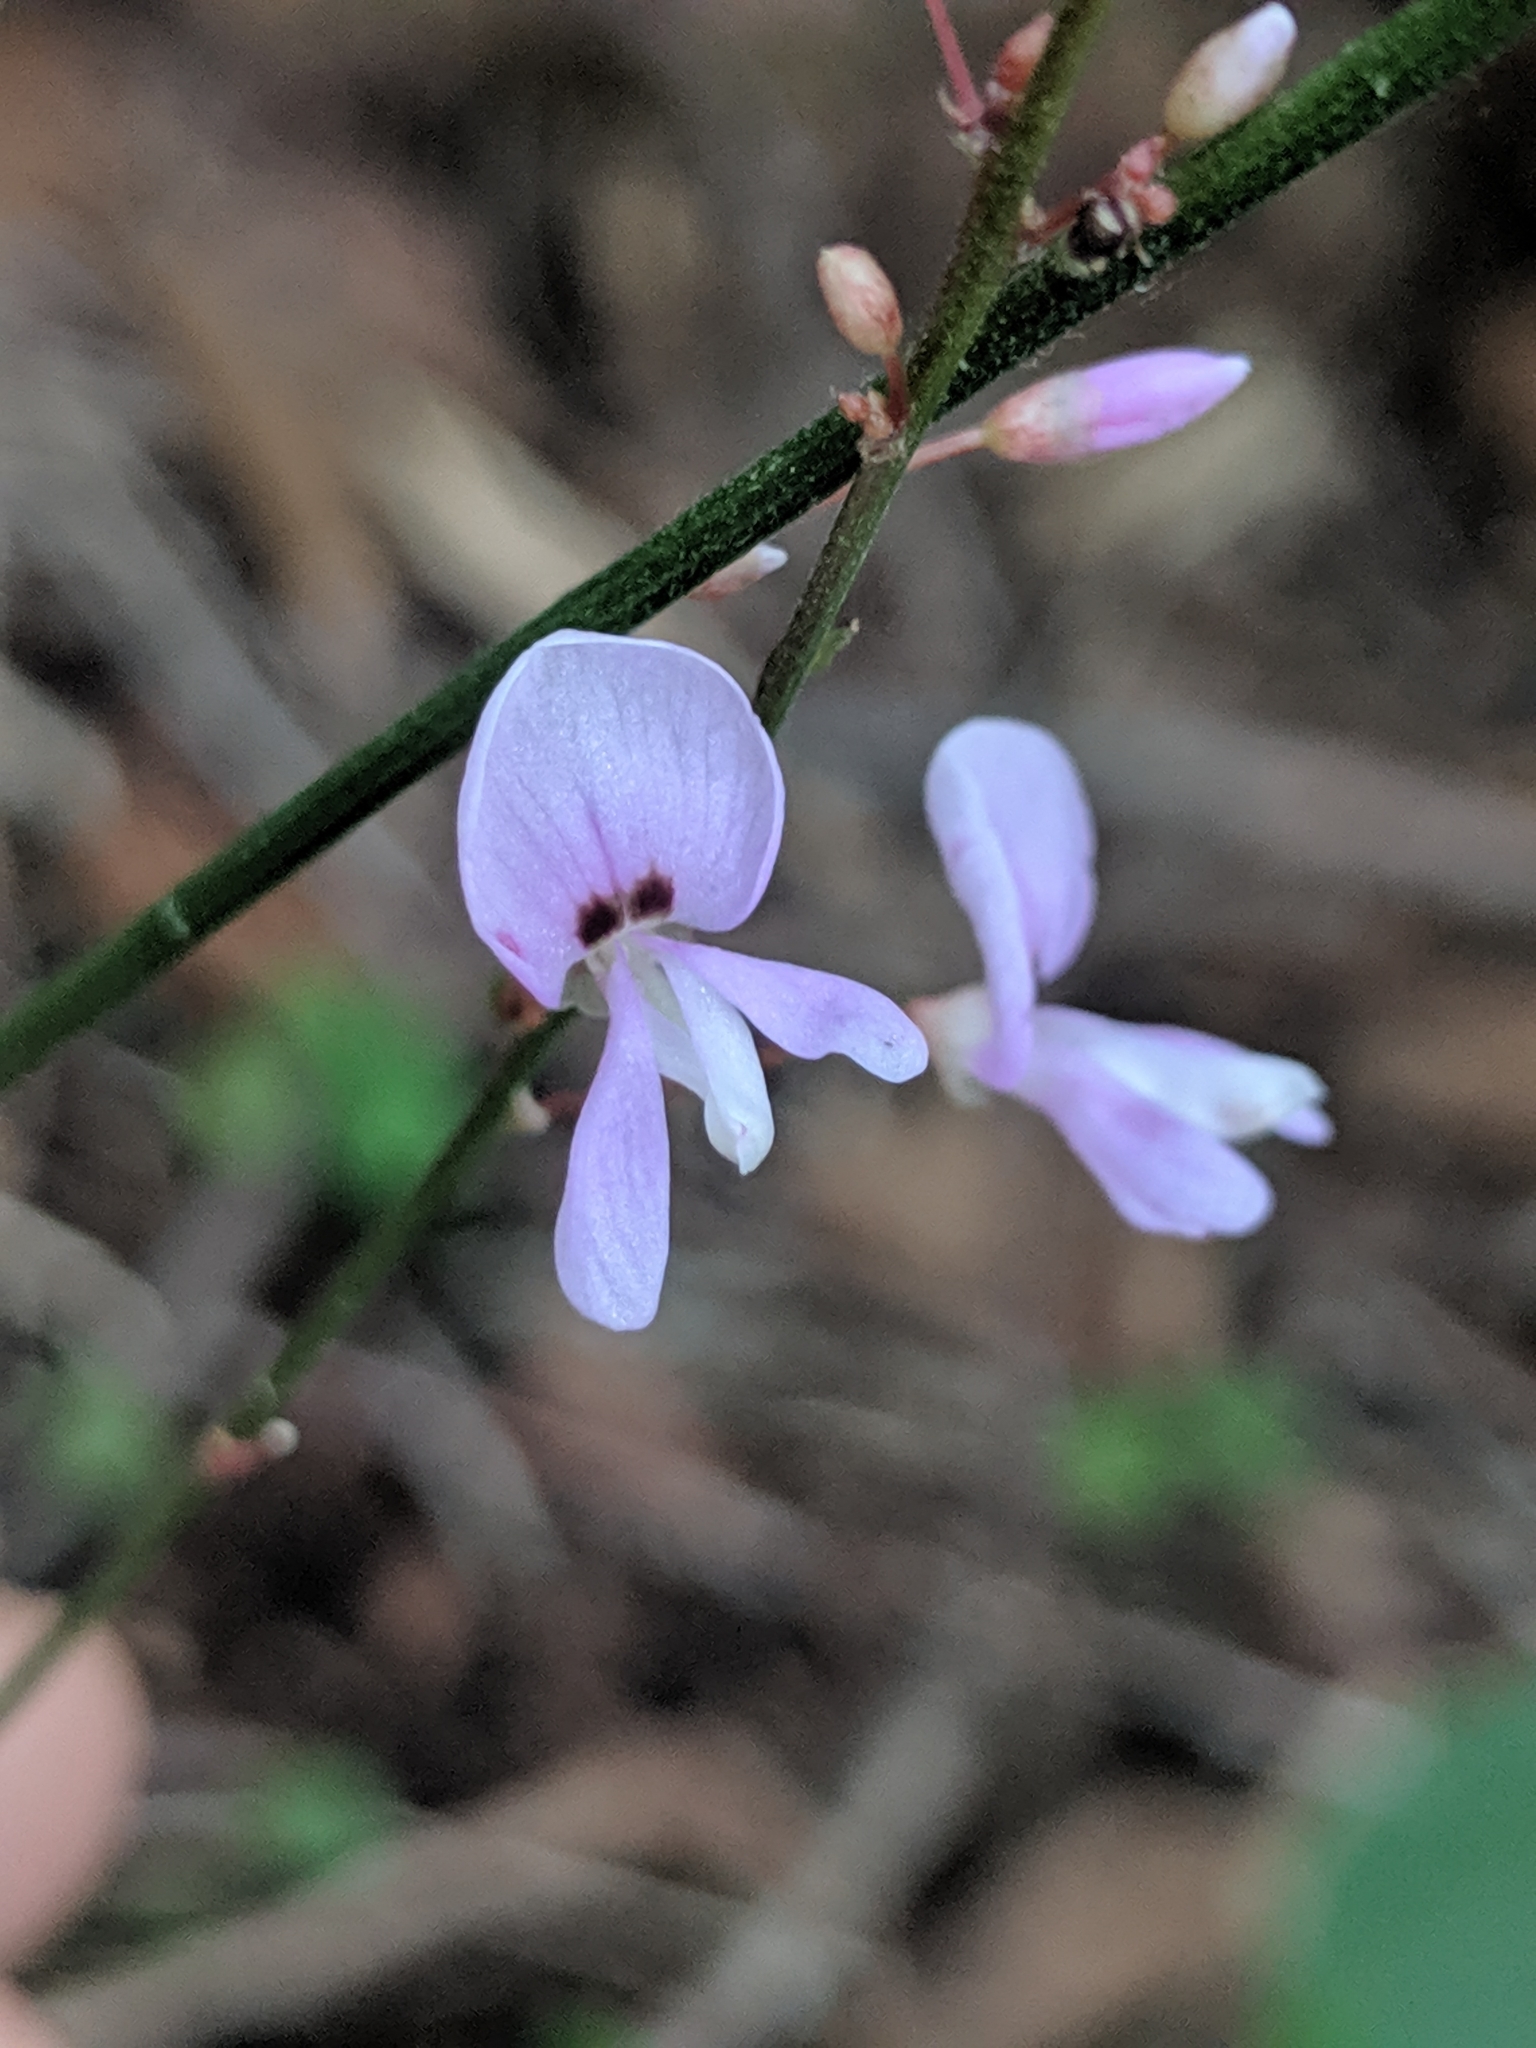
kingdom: Plantae
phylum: Tracheophyta
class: Magnoliopsida
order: Fabales
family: Fabaceae
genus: Hylodesmum
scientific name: Hylodesmum nudiflorum
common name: Bare-stemmed tick-trefoil
